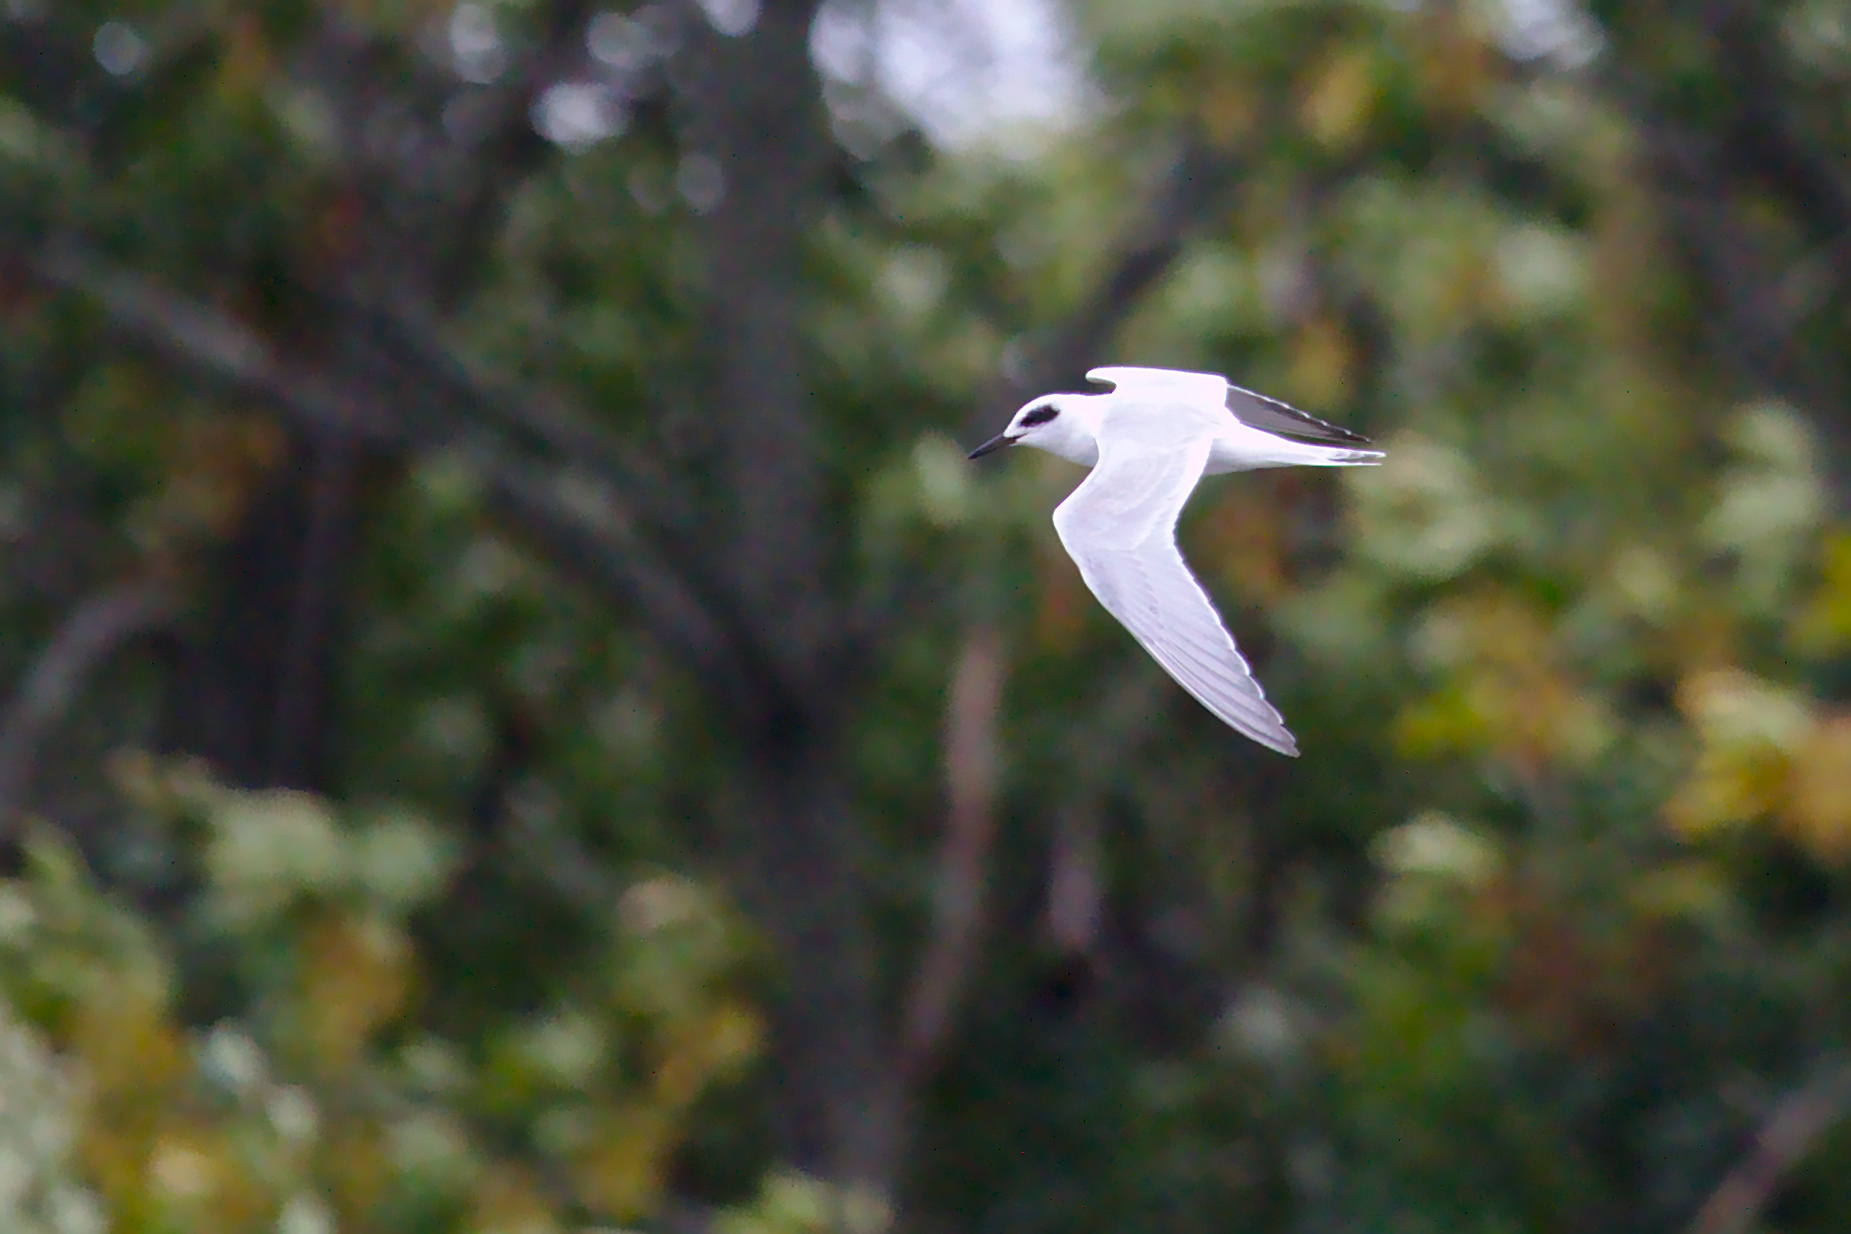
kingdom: Animalia
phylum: Chordata
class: Aves
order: Charadriiformes
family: Laridae
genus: Sterna
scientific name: Sterna forsteri
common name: Forster's tern
